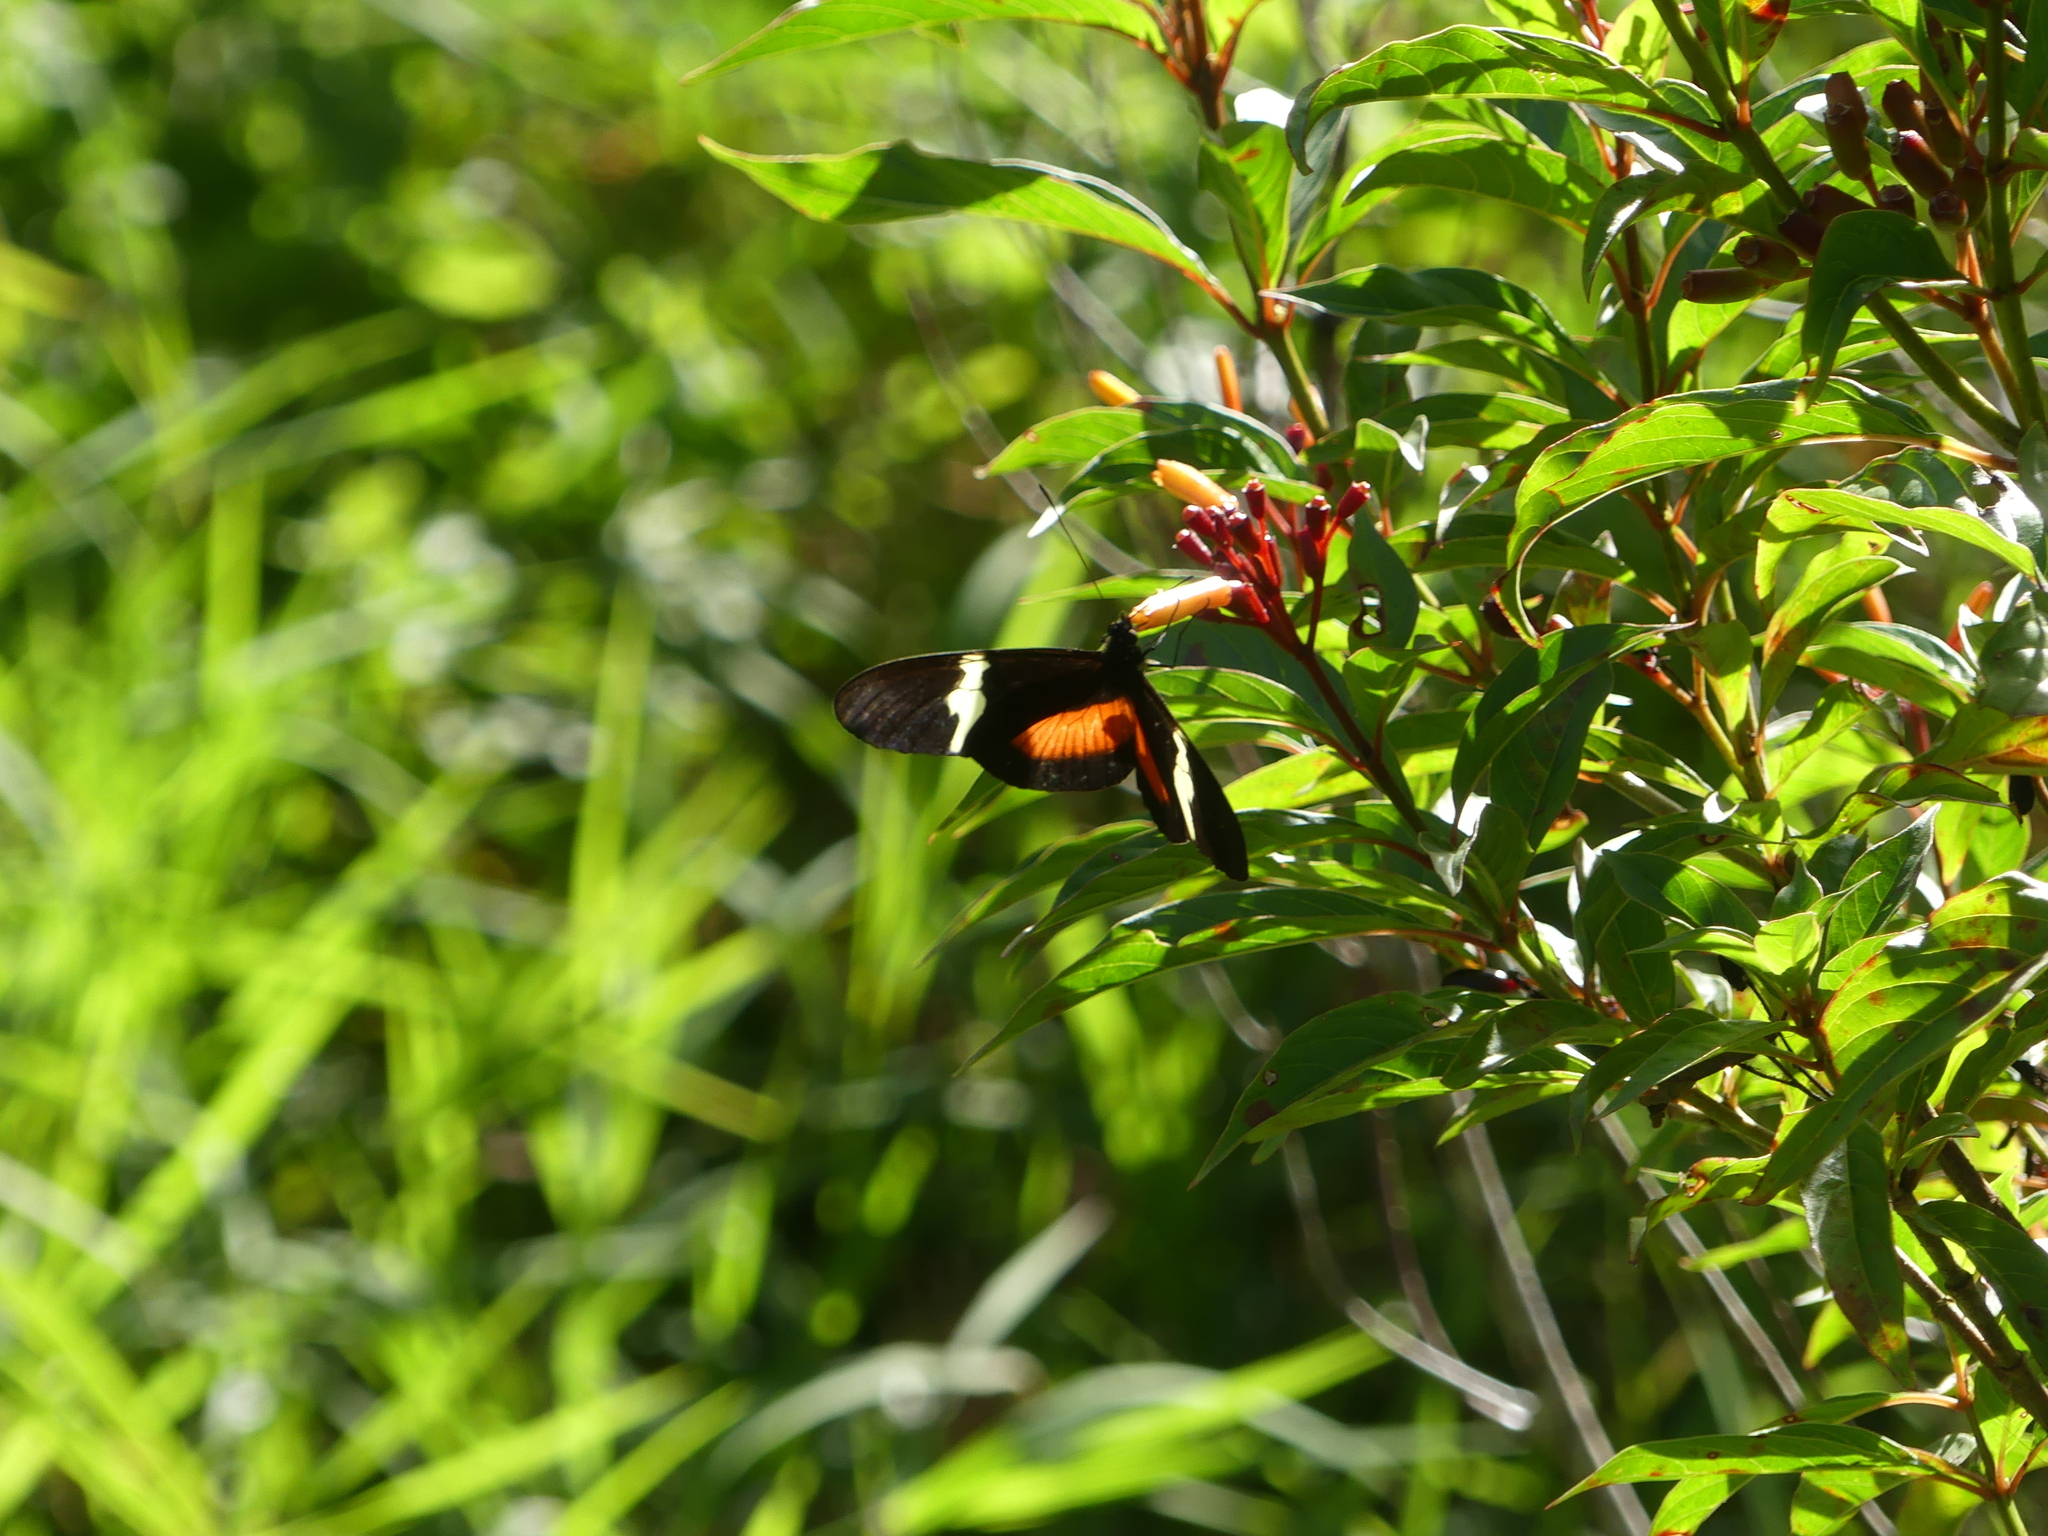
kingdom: Animalia
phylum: Arthropoda
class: Insecta
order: Lepidoptera
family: Nymphalidae
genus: Heliconius
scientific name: Heliconius clysonymus
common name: Clysonymus longwing
